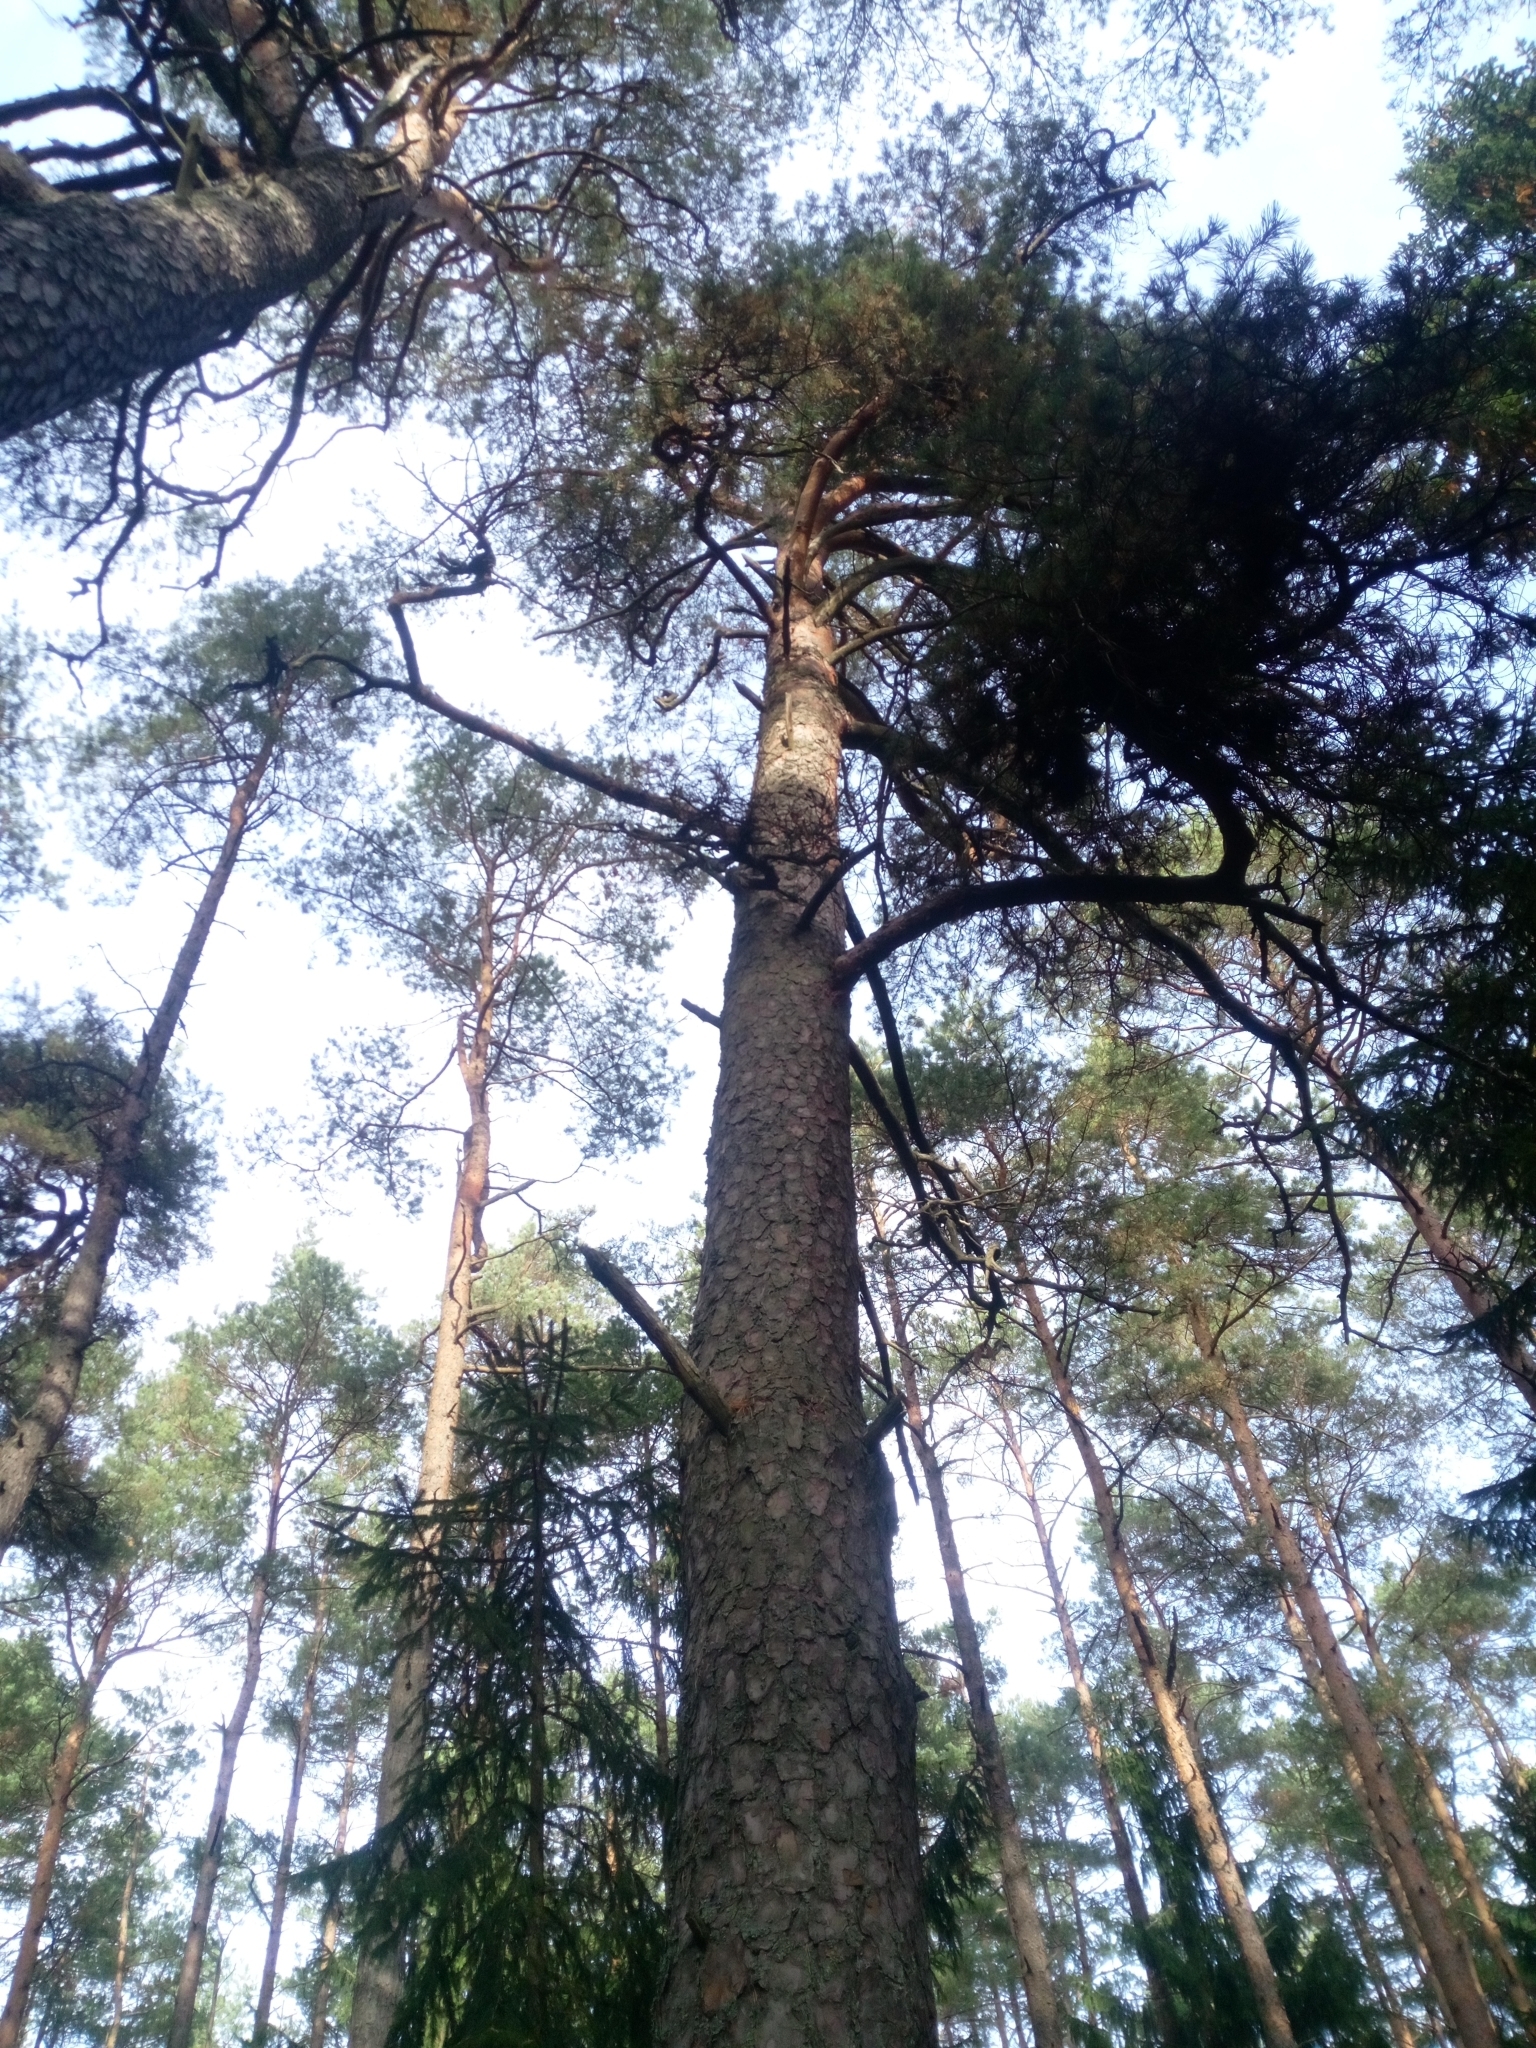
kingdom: Plantae
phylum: Tracheophyta
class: Pinopsida
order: Pinales
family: Pinaceae
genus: Pinus
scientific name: Pinus sylvestris
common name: Scots pine
